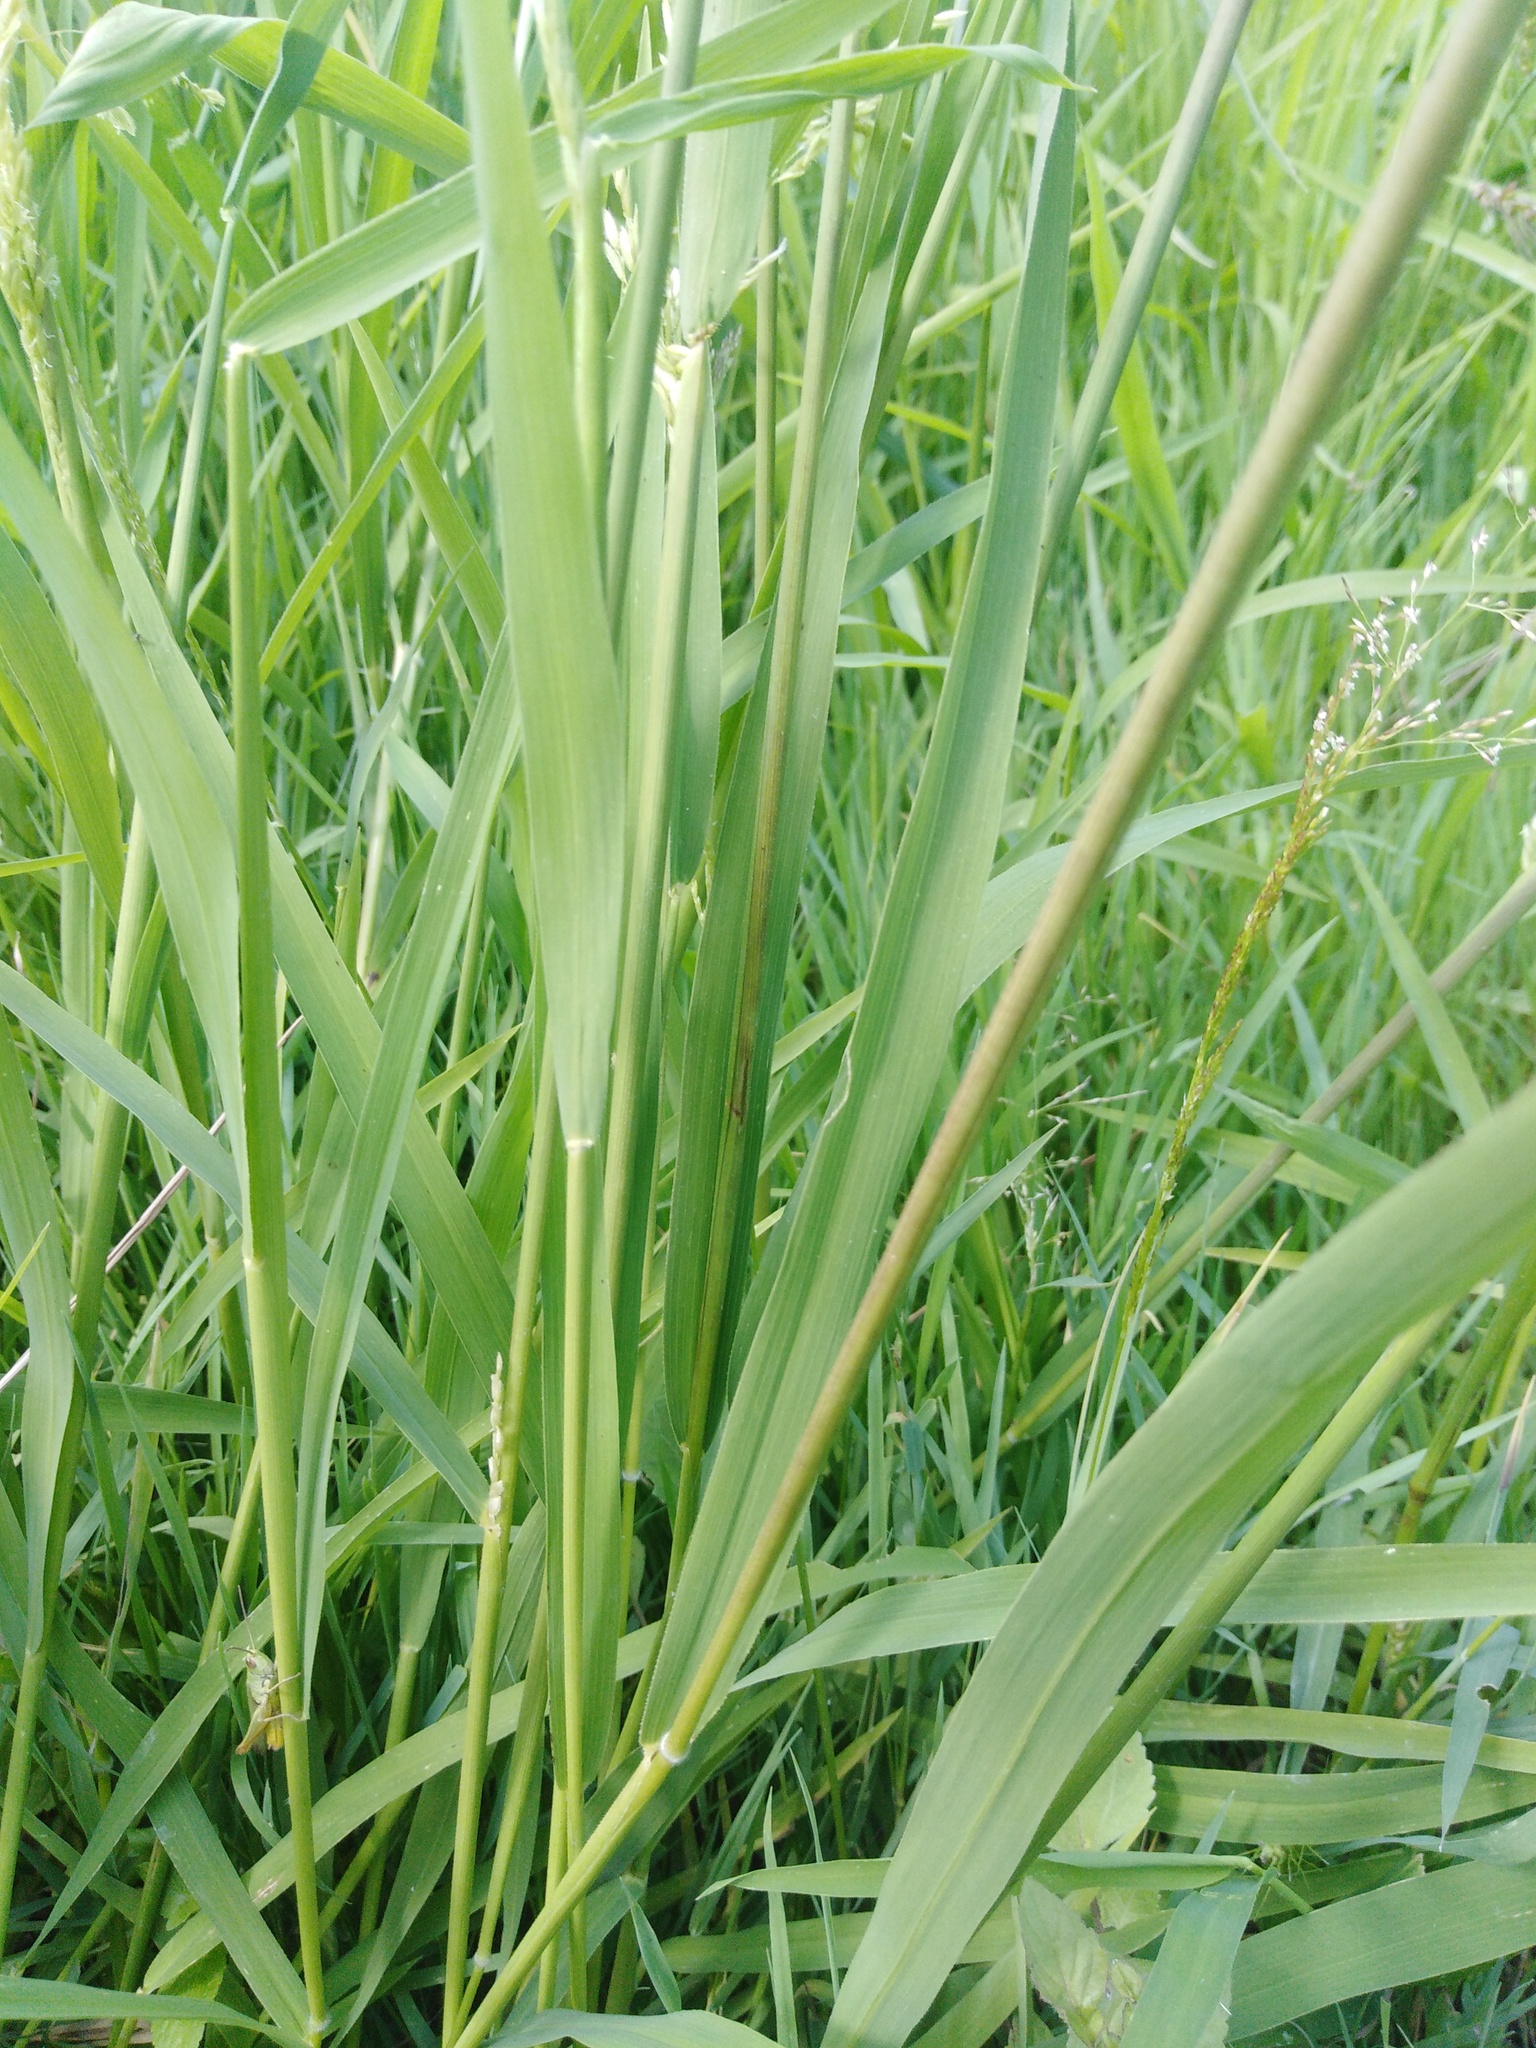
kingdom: Plantae
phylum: Tracheophyta
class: Liliopsida
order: Poales
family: Poaceae
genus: Leersia
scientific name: Leersia oryzoides
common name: Cut-grass
